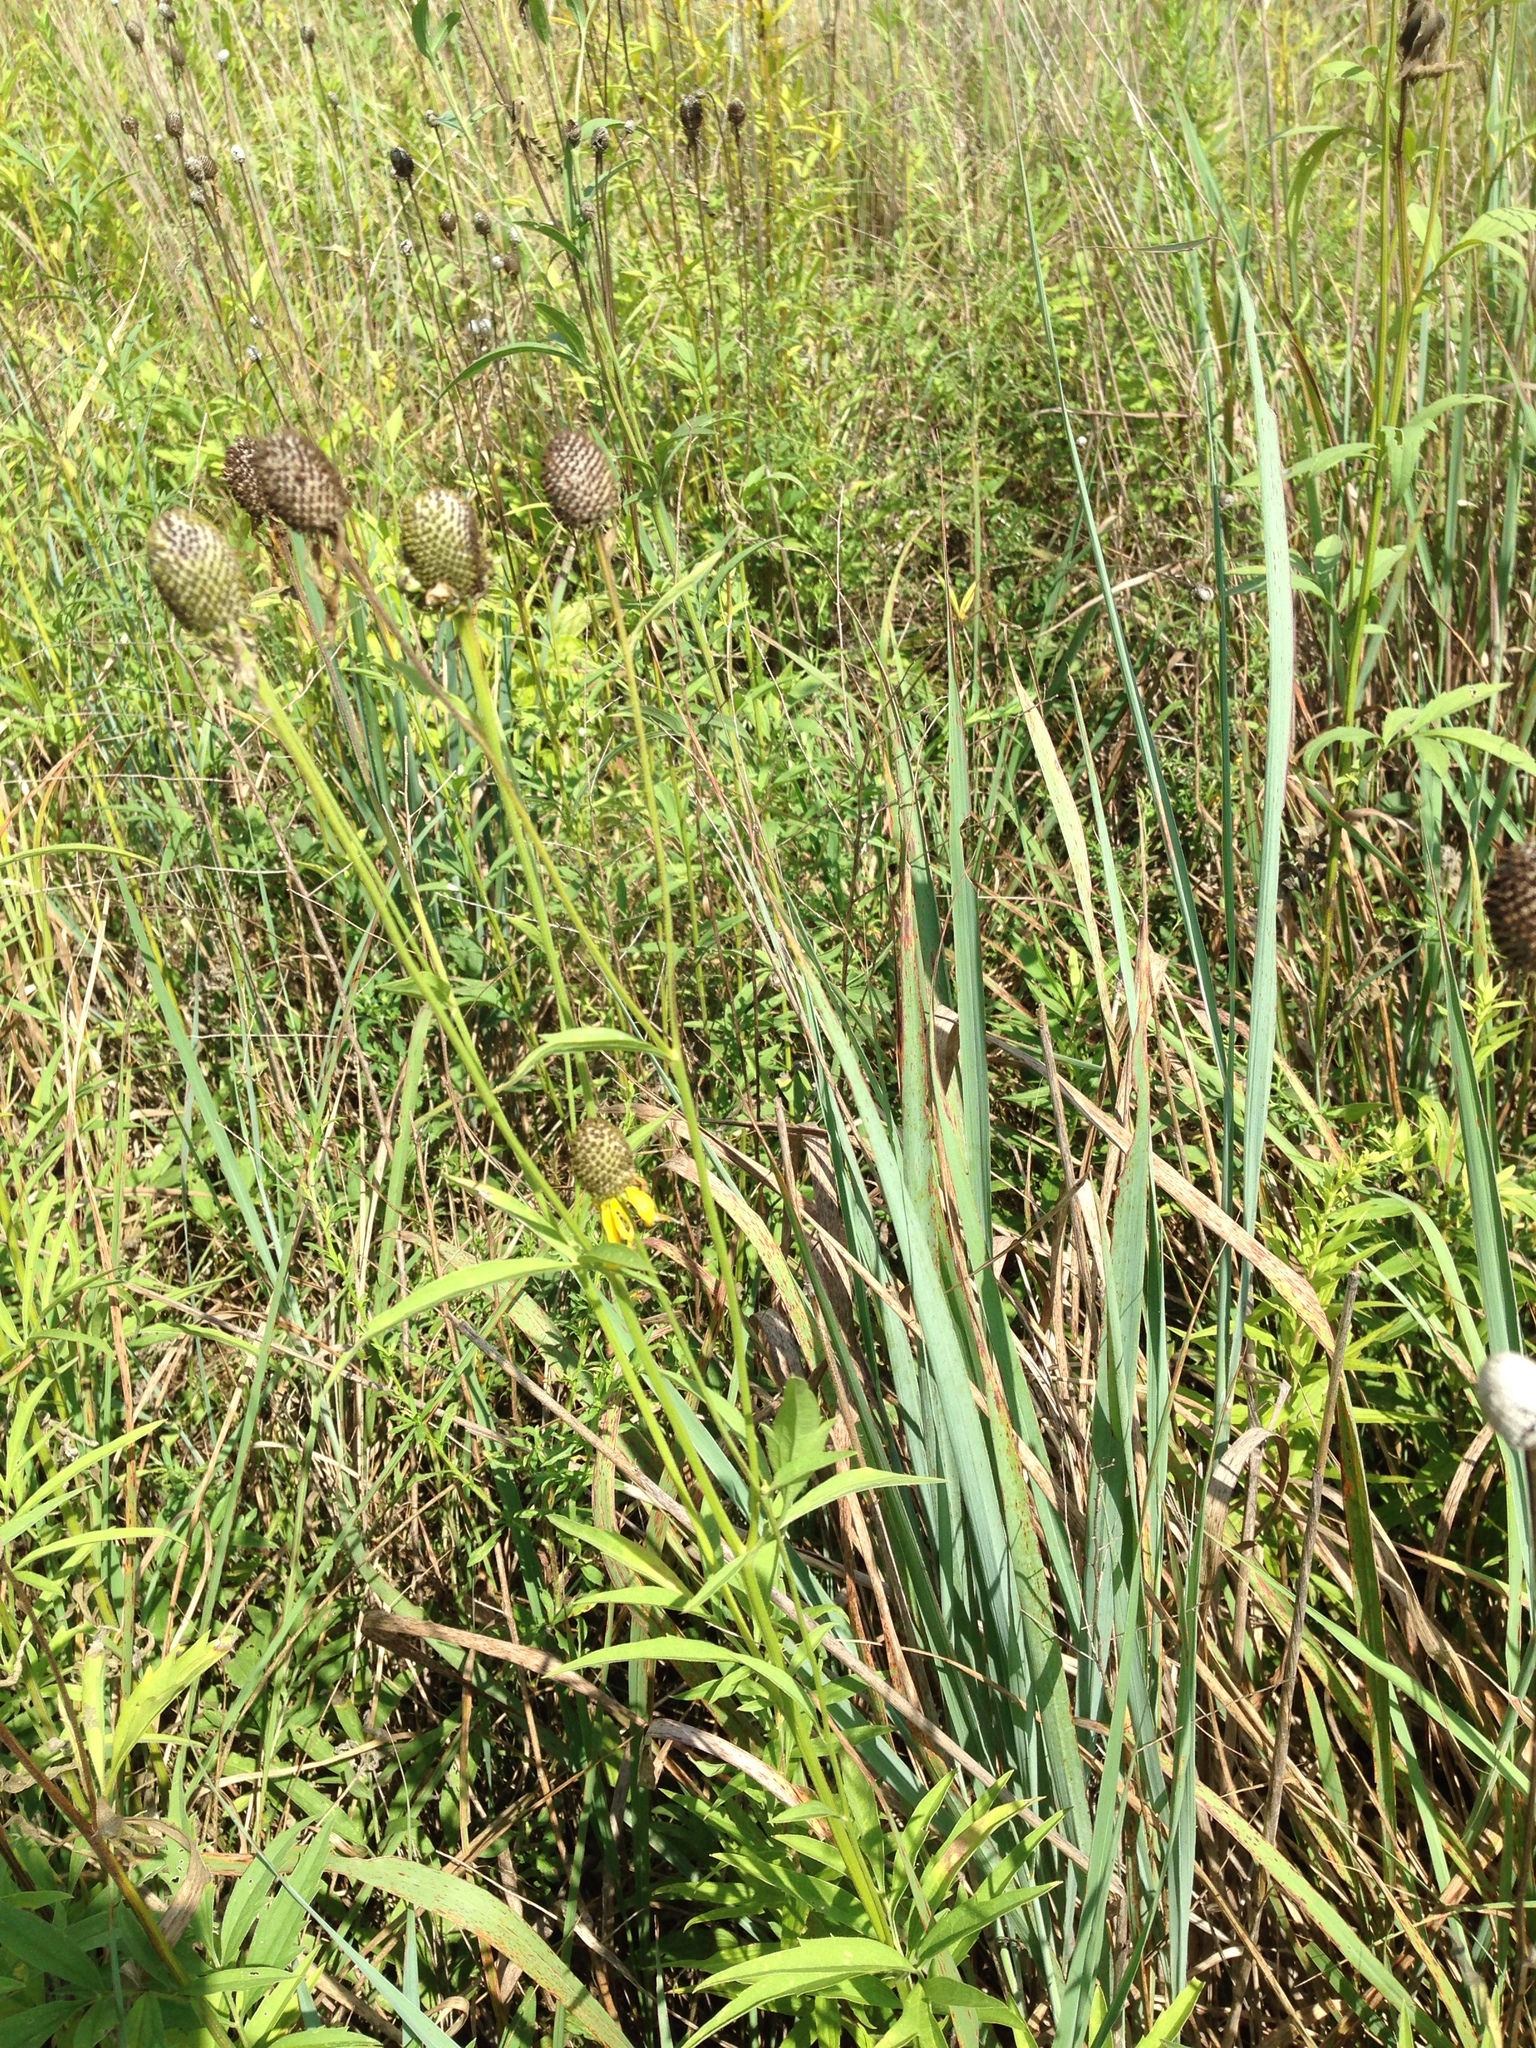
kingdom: Plantae
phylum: Tracheophyta
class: Magnoliopsida
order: Asterales
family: Asteraceae
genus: Ratibida
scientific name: Ratibida pinnata
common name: Drooping prairie-coneflower
